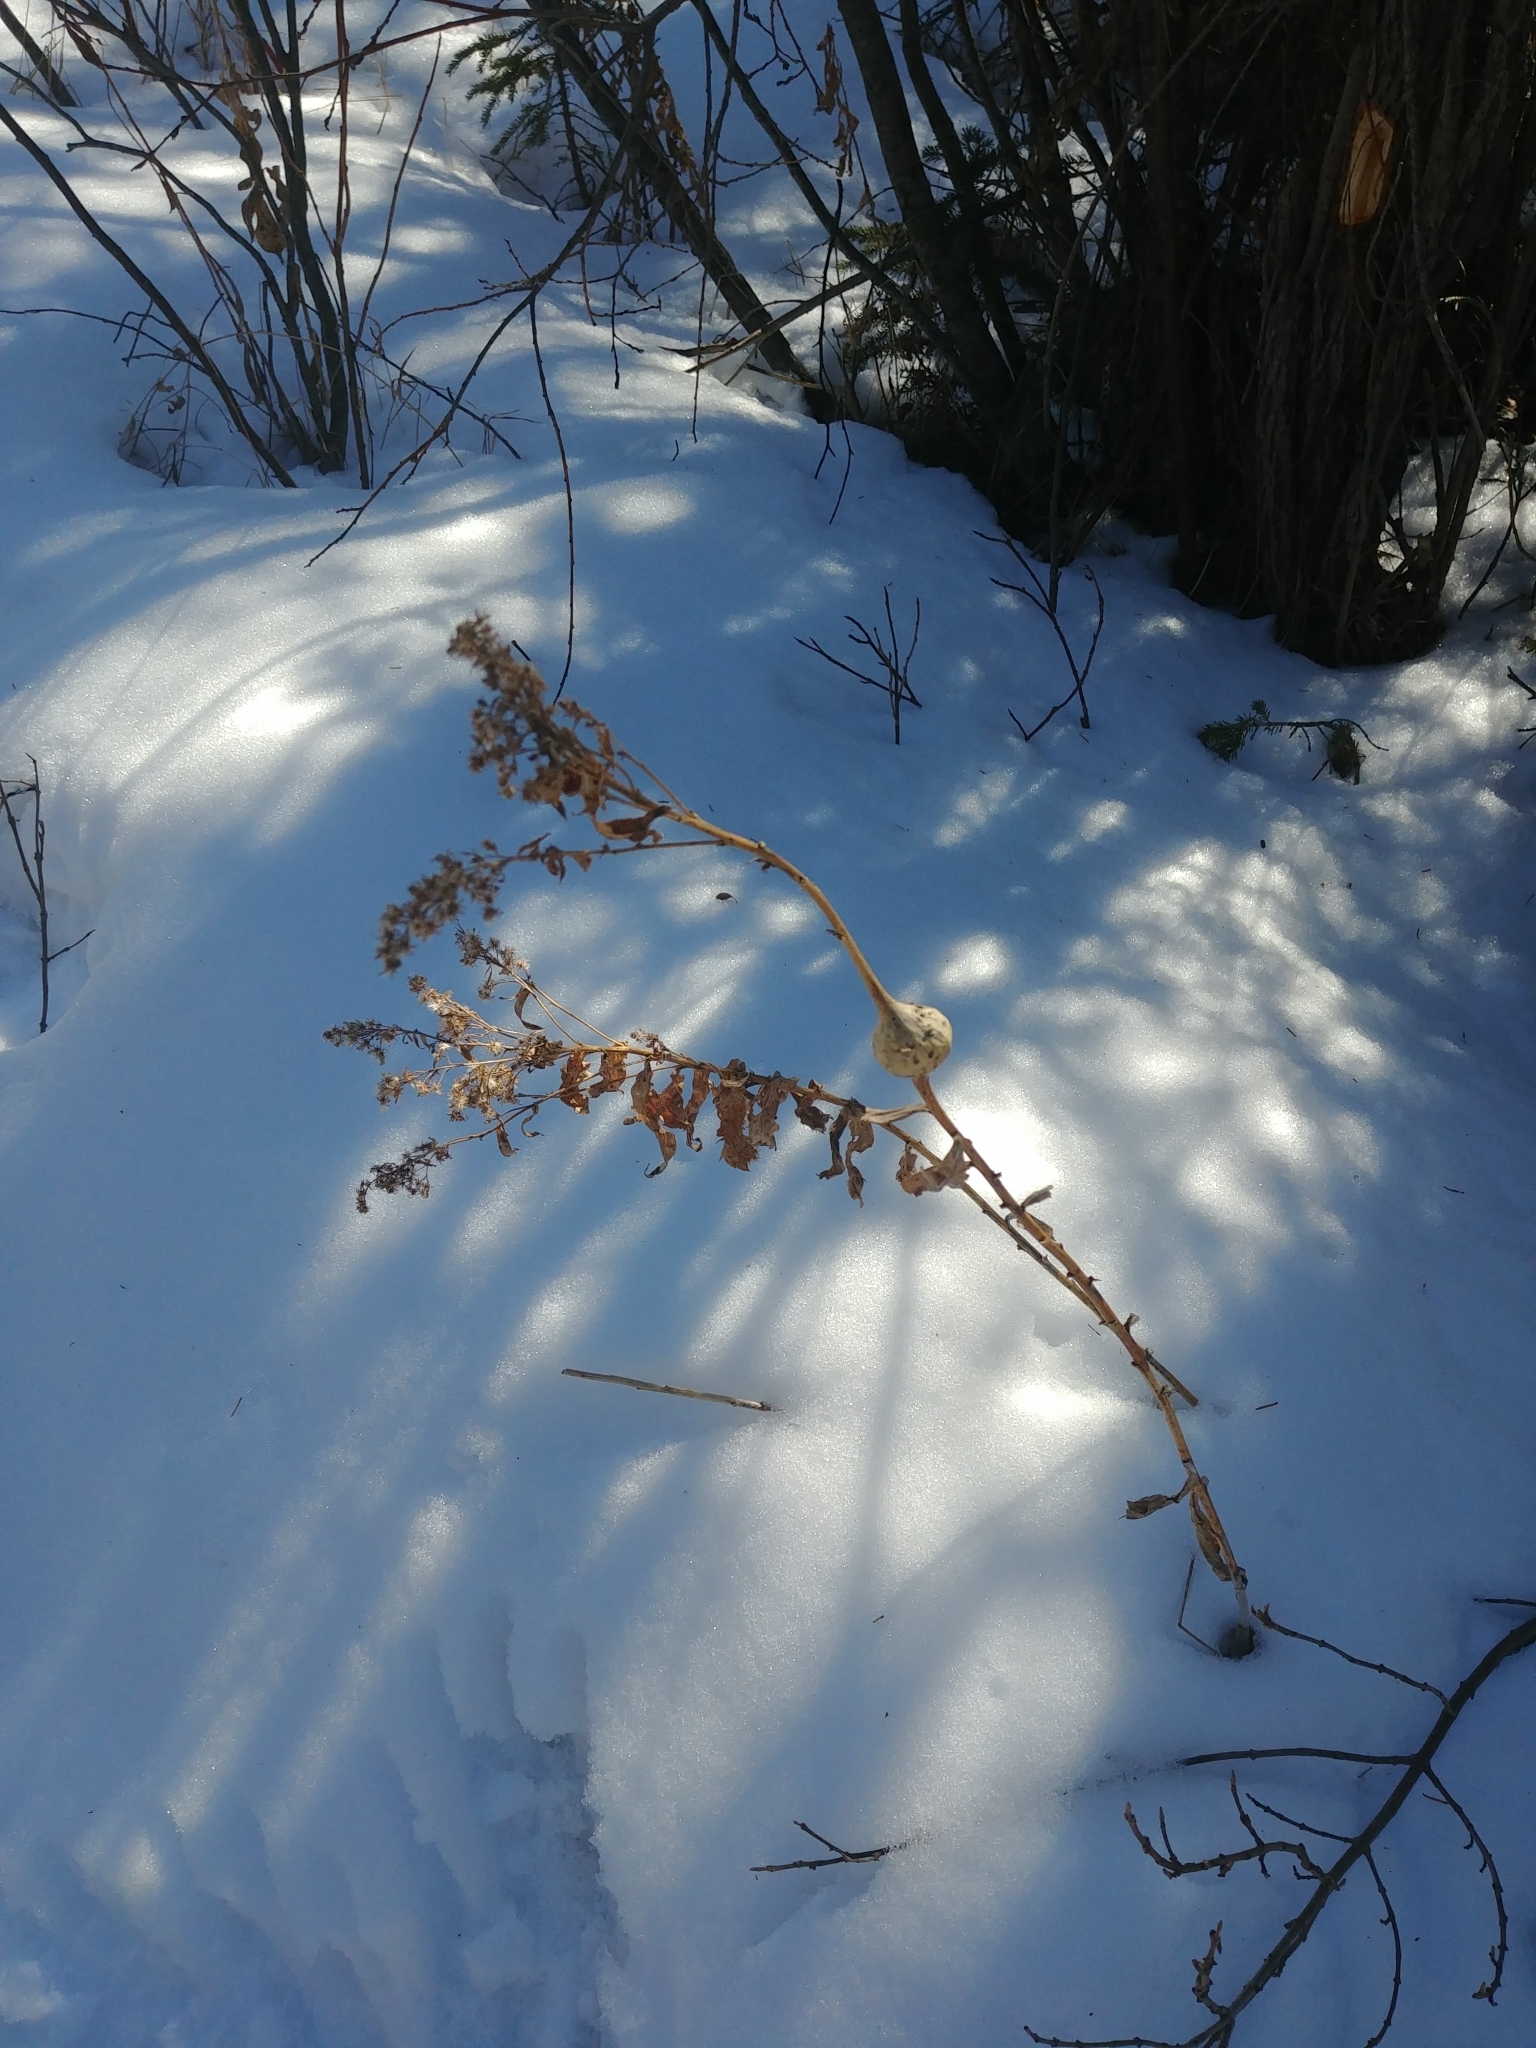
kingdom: Animalia
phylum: Arthropoda
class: Insecta
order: Diptera
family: Tephritidae
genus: Eurosta
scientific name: Eurosta solidaginis
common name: Goldenrod gall fly
